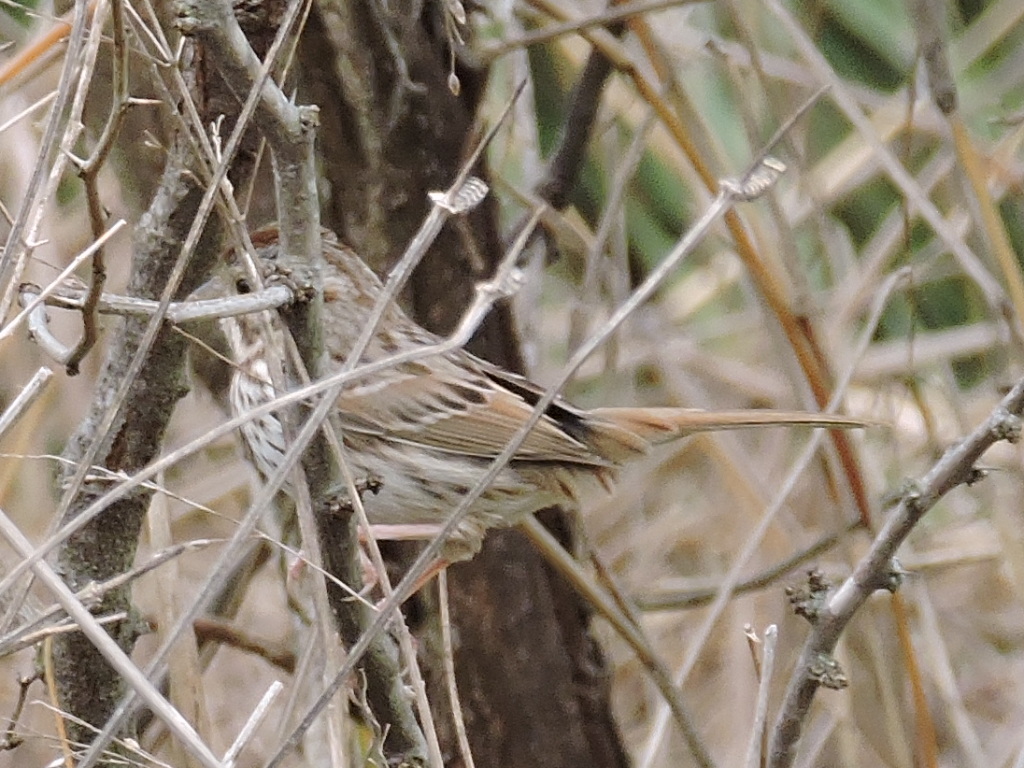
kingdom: Animalia
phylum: Chordata
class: Aves
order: Passeriformes
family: Passerellidae
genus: Melospiza
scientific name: Melospiza melodia
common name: Song sparrow
